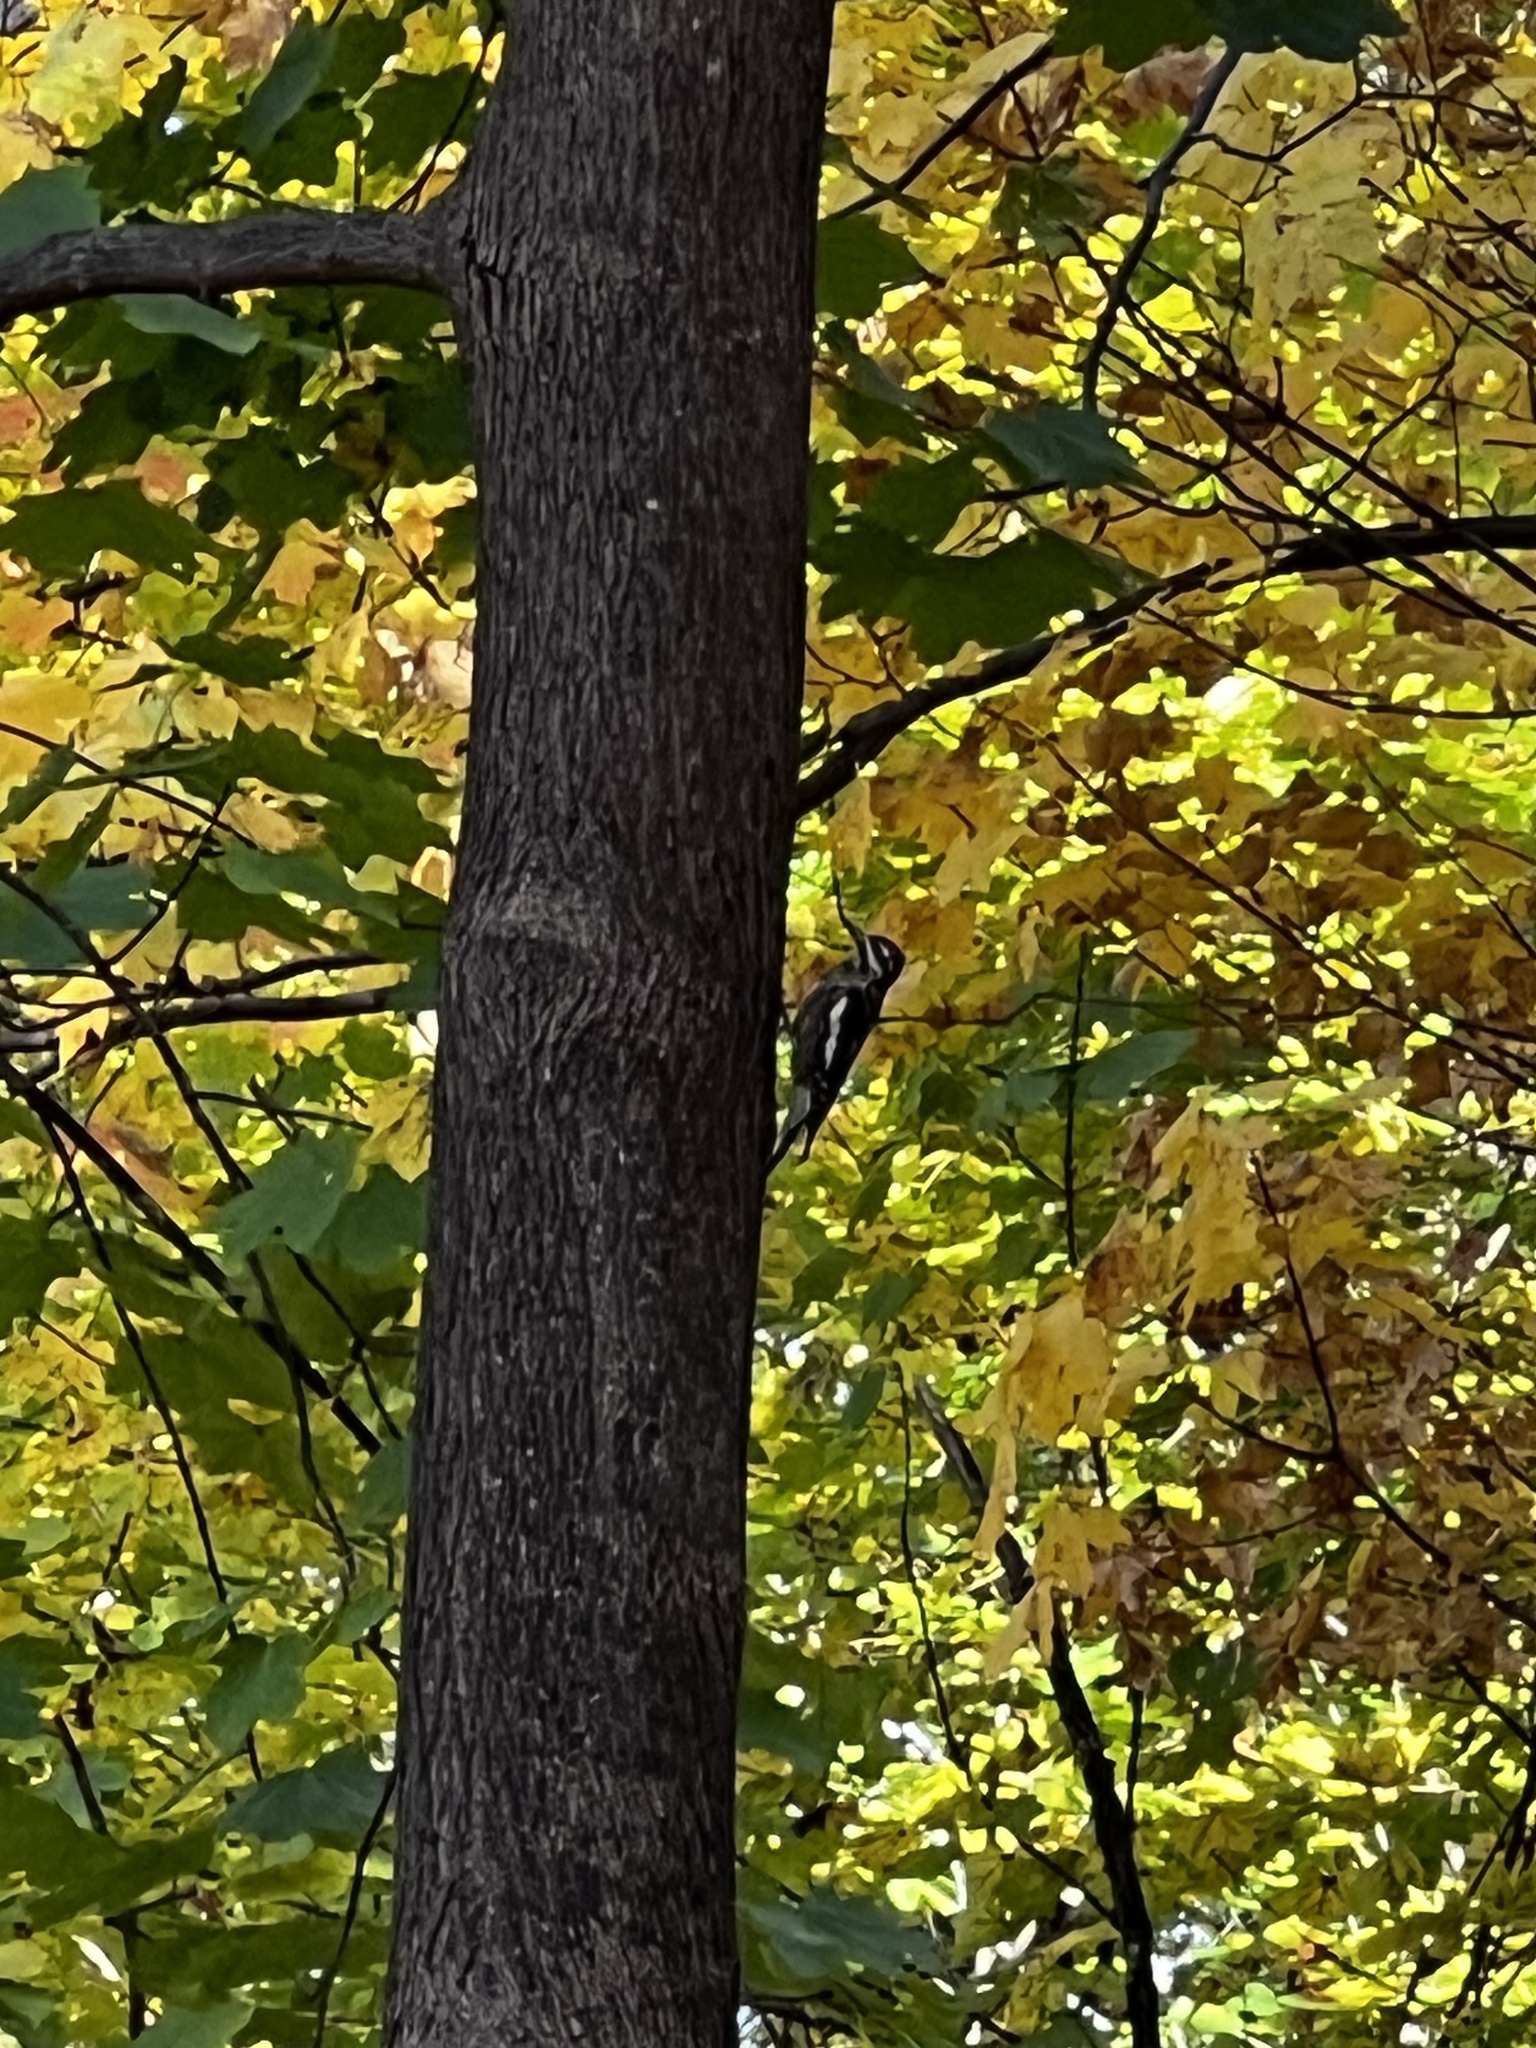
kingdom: Animalia
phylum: Chordata
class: Aves
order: Piciformes
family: Picidae
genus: Sphyrapicus
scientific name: Sphyrapicus varius
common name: Yellow-bellied sapsucker
